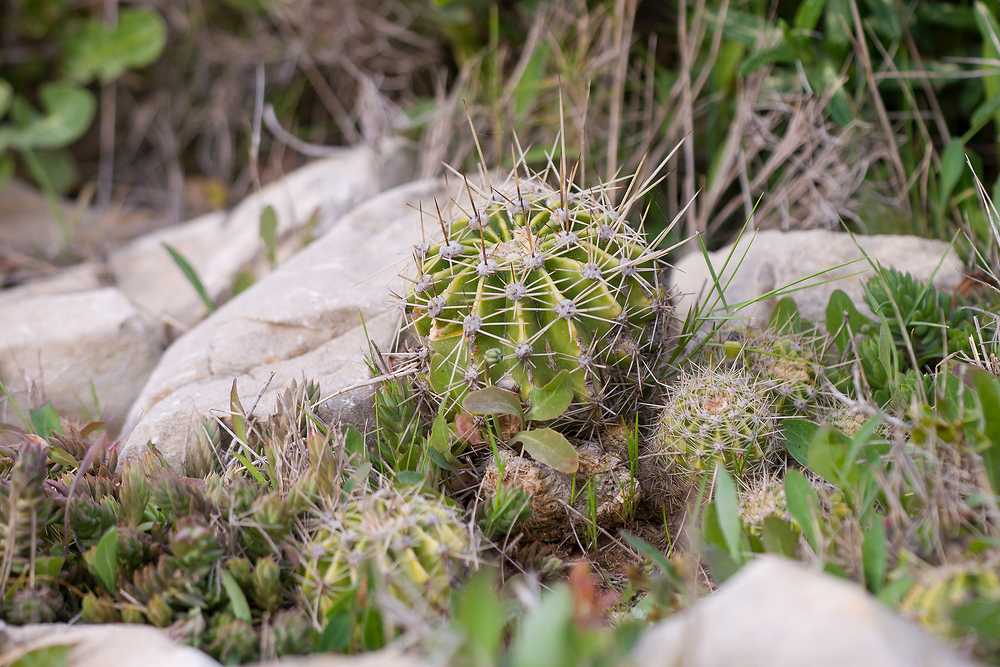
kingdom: Plantae
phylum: Tracheophyta
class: Magnoliopsida
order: Caryophyllales
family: Cactaceae
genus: Echinopsis
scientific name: Echinopsis oxygona
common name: Red easter-lily cactus
